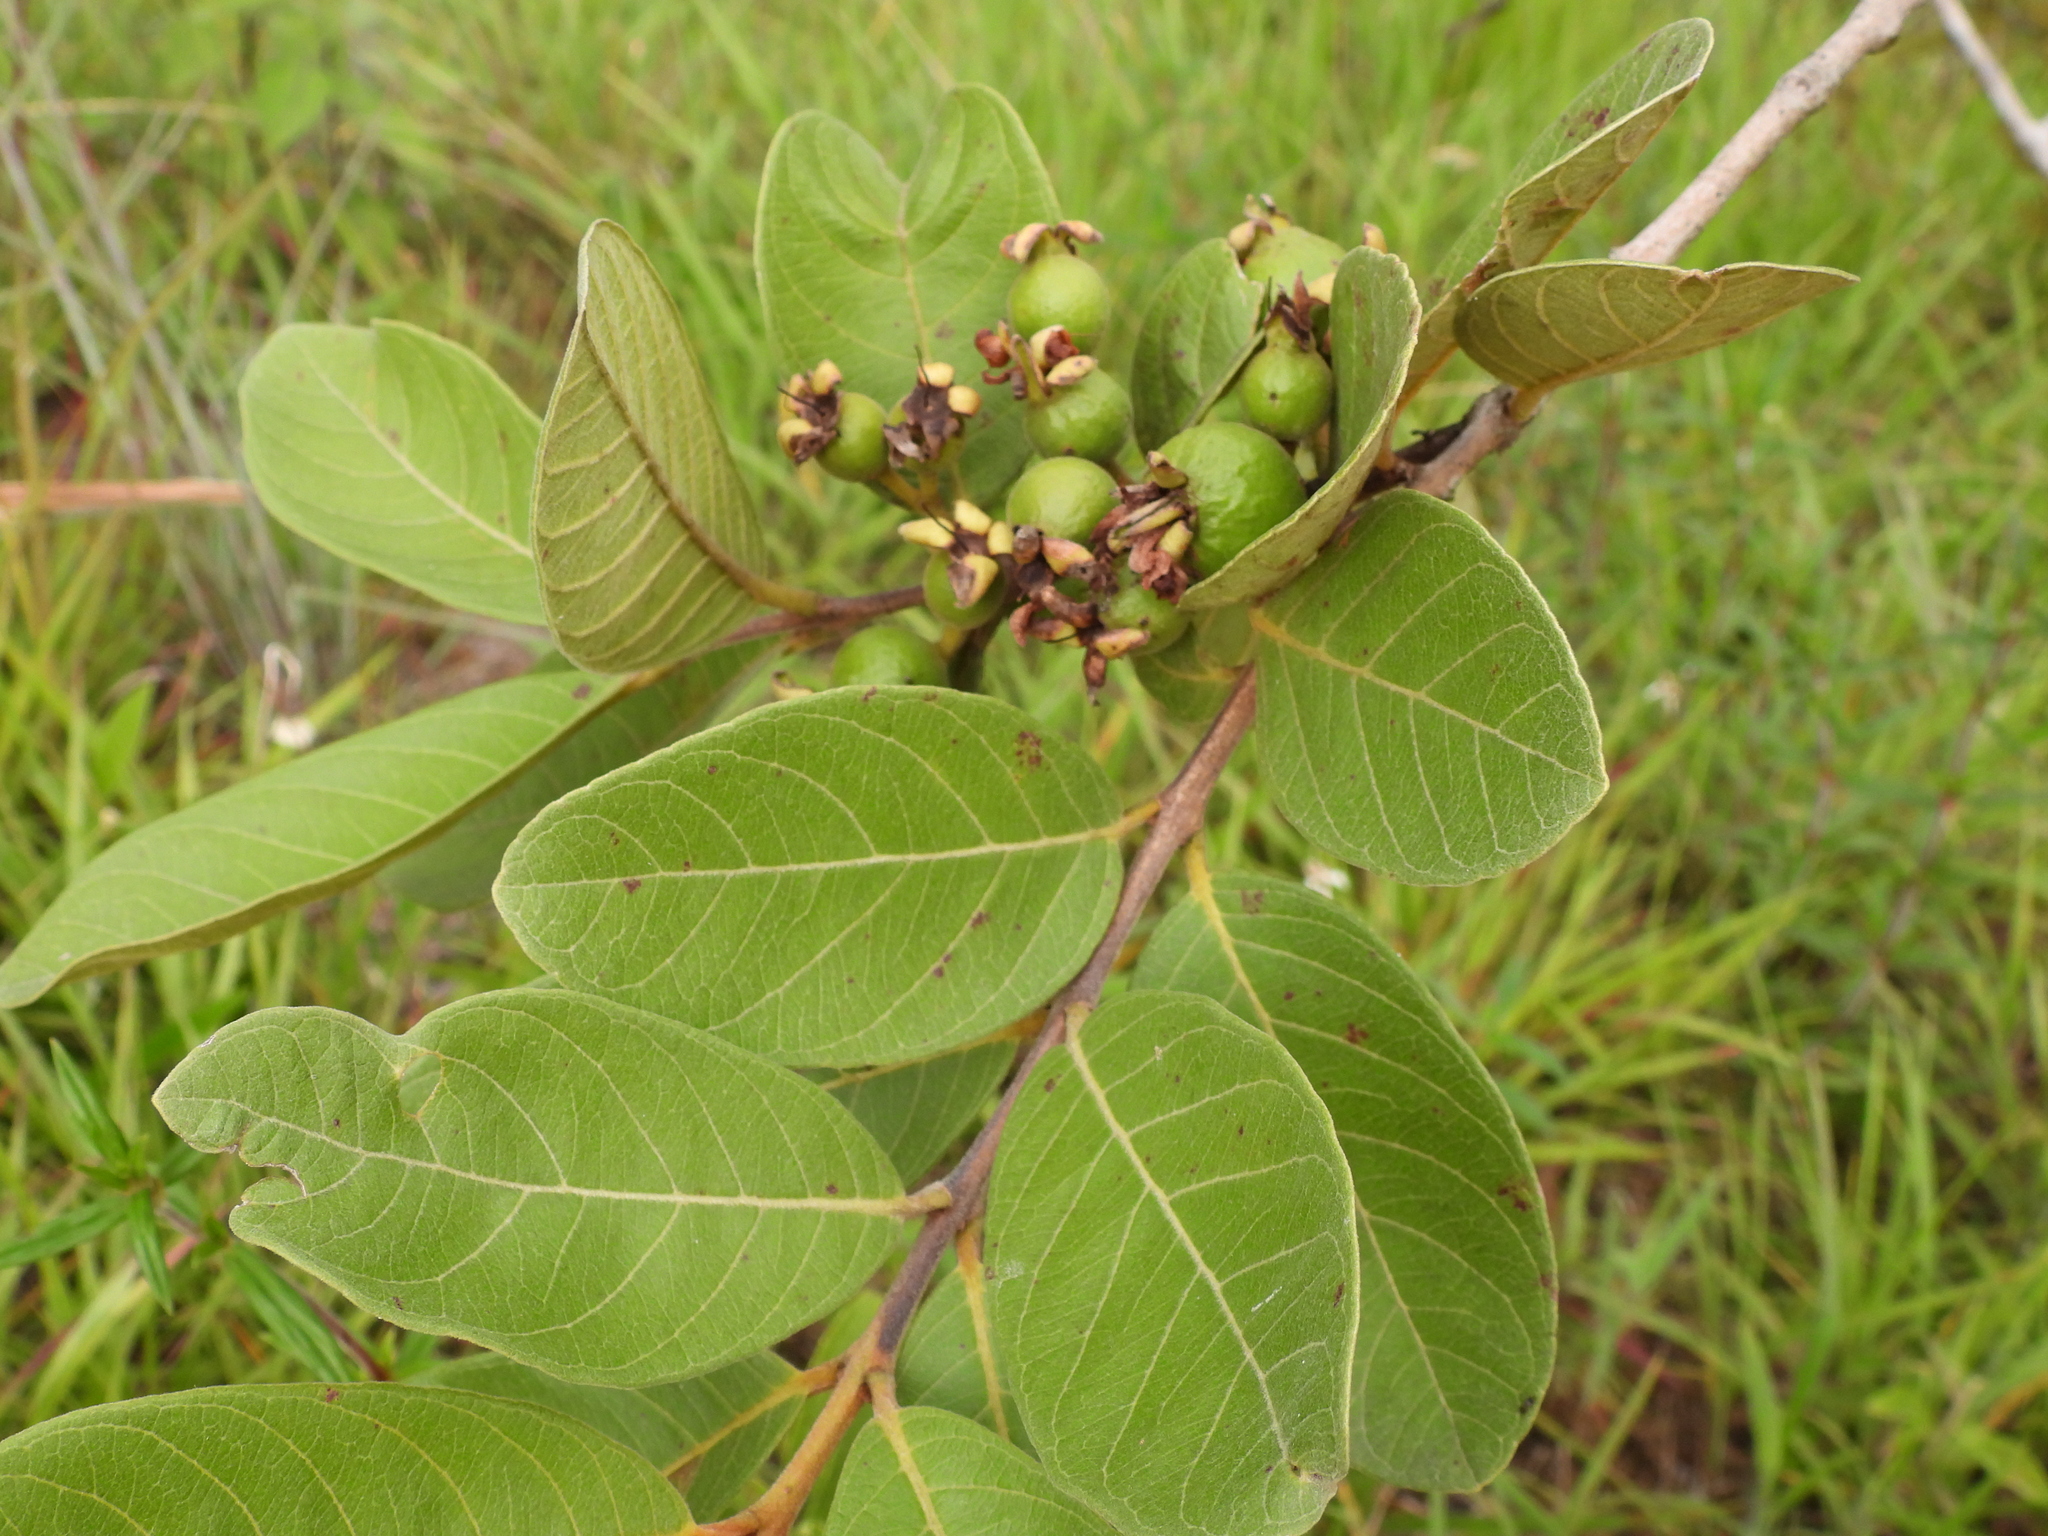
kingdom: Plantae
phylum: Tracheophyta
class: Magnoliopsida
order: Myrtales
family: Myrtaceae
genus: Psidium
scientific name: Psidium guajava
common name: Guava
